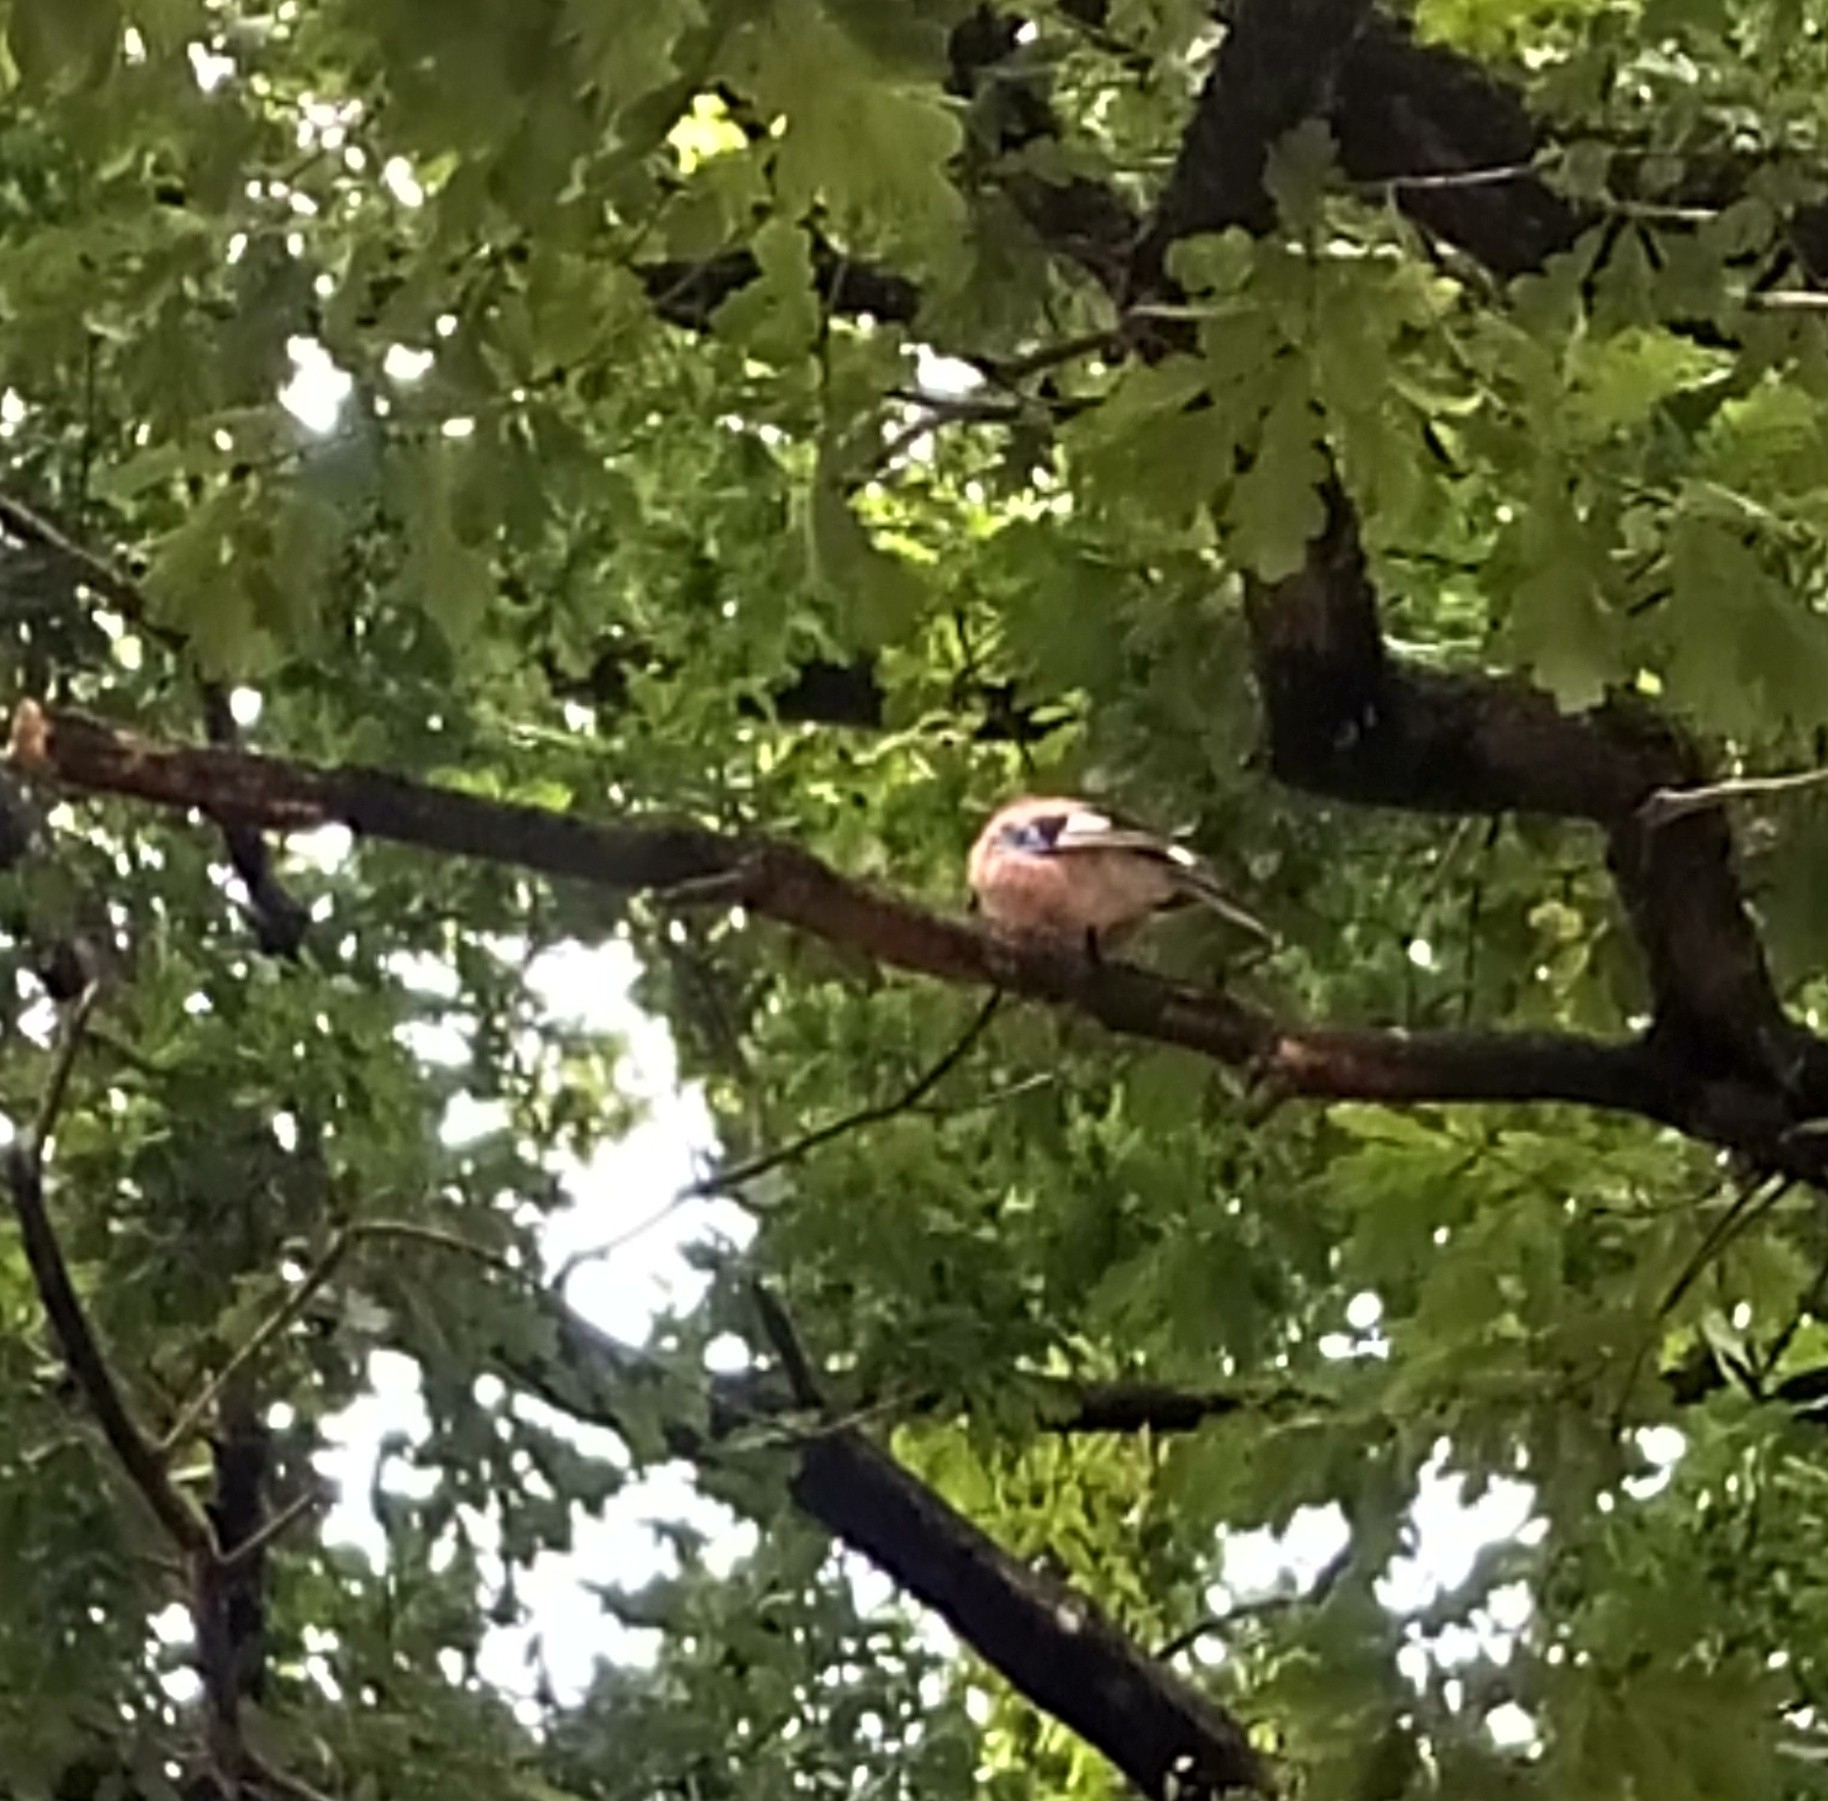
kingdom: Animalia
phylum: Chordata
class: Aves
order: Passeriformes
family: Corvidae
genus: Garrulus
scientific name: Garrulus glandarius
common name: Eurasian jay
